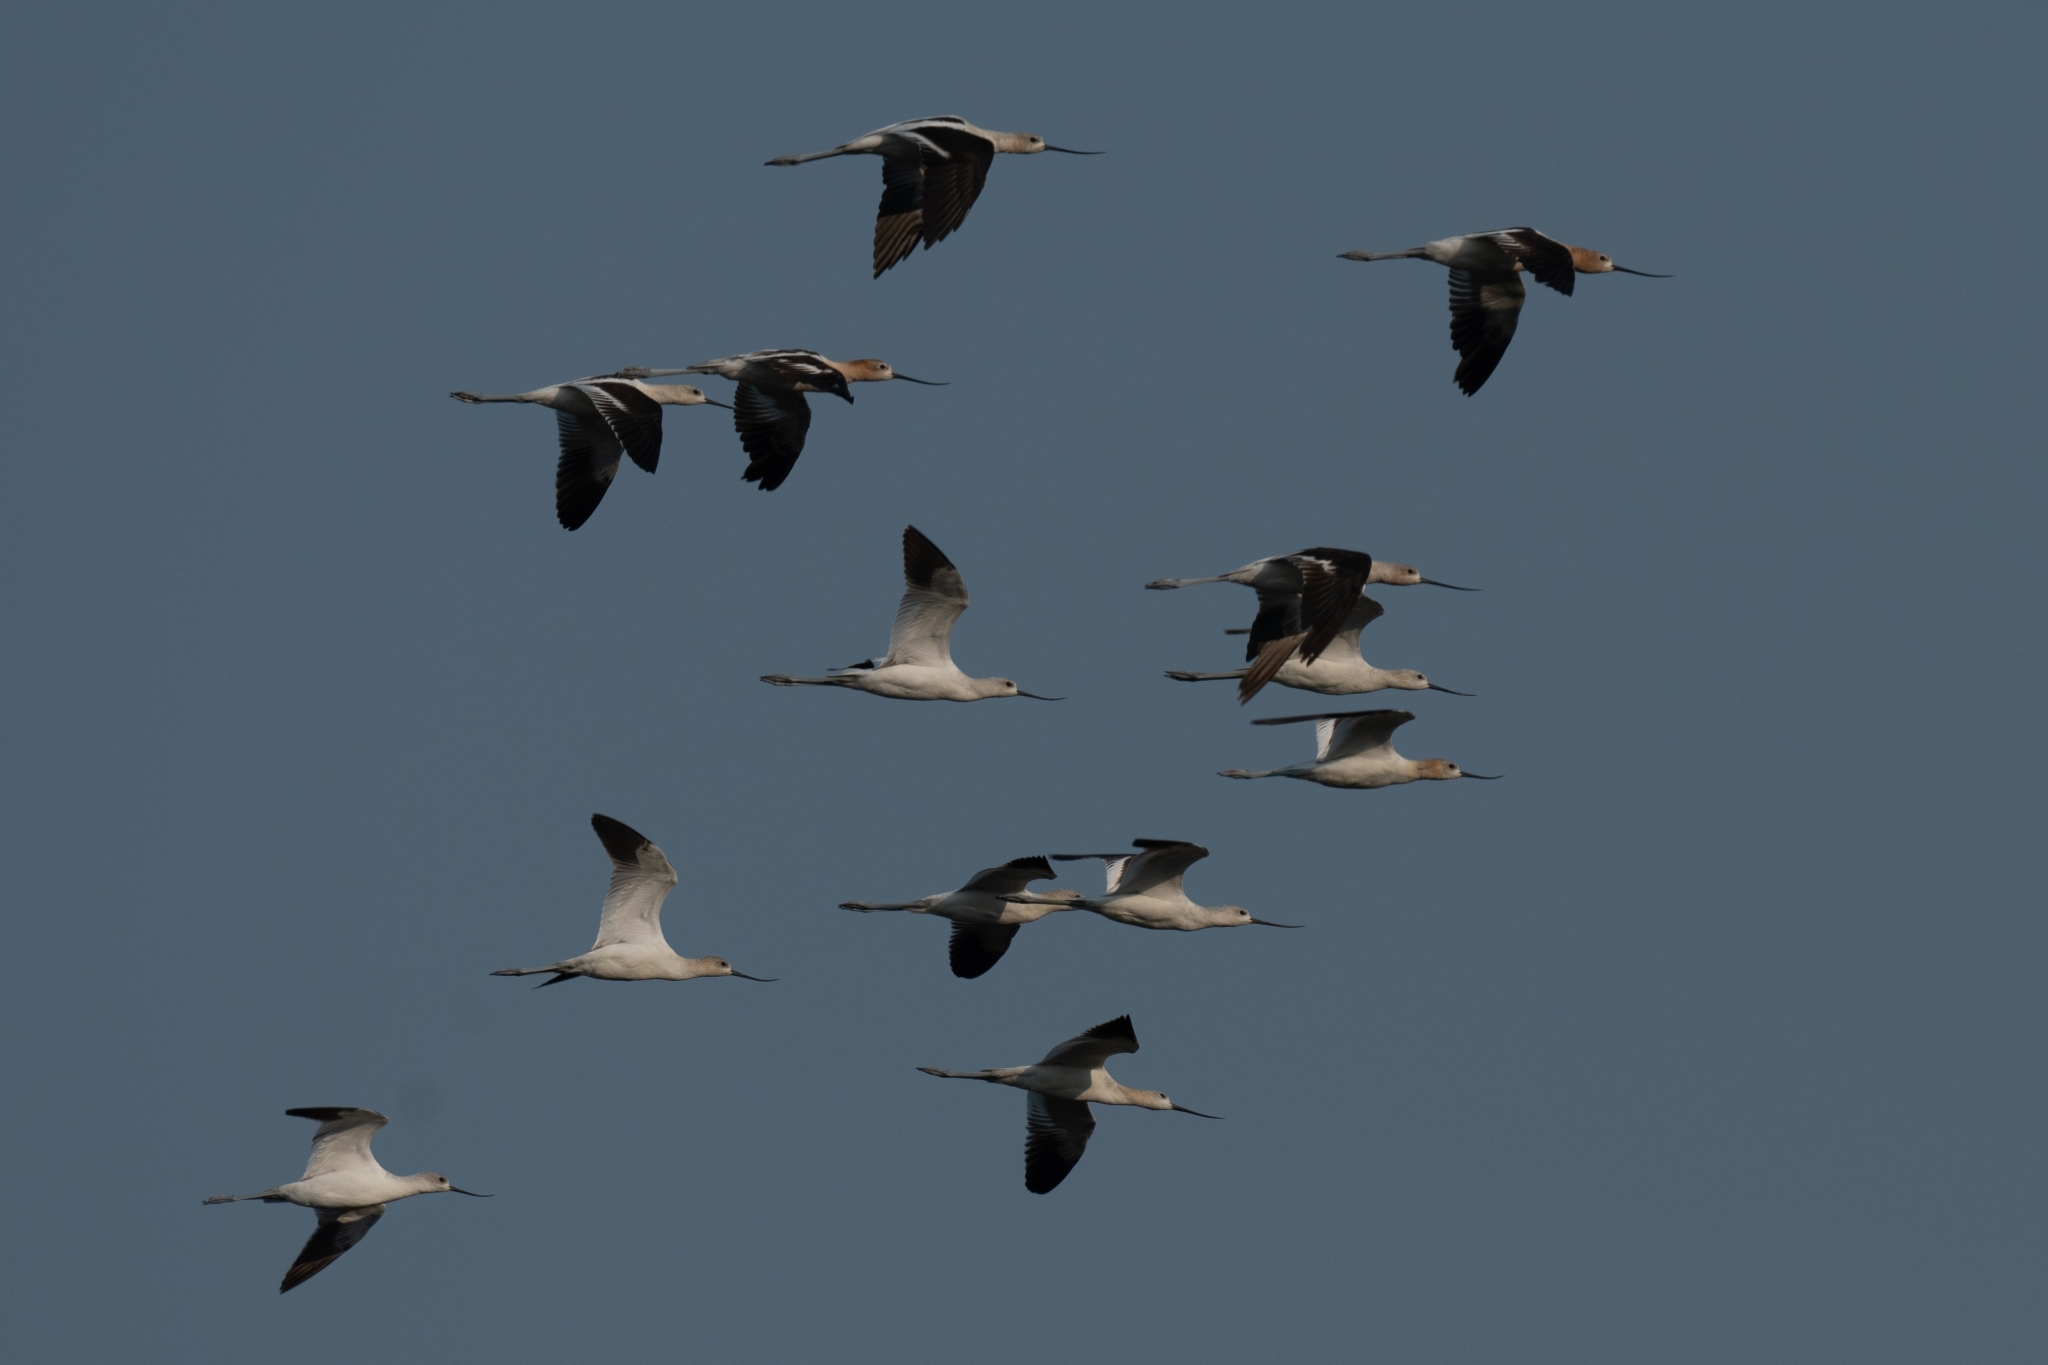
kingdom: Animalia
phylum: Chordata
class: Aves
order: Charadriiformes
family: Recurvirostridae
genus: Recurvirostra
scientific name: Recurvirostra americana
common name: American avocet
